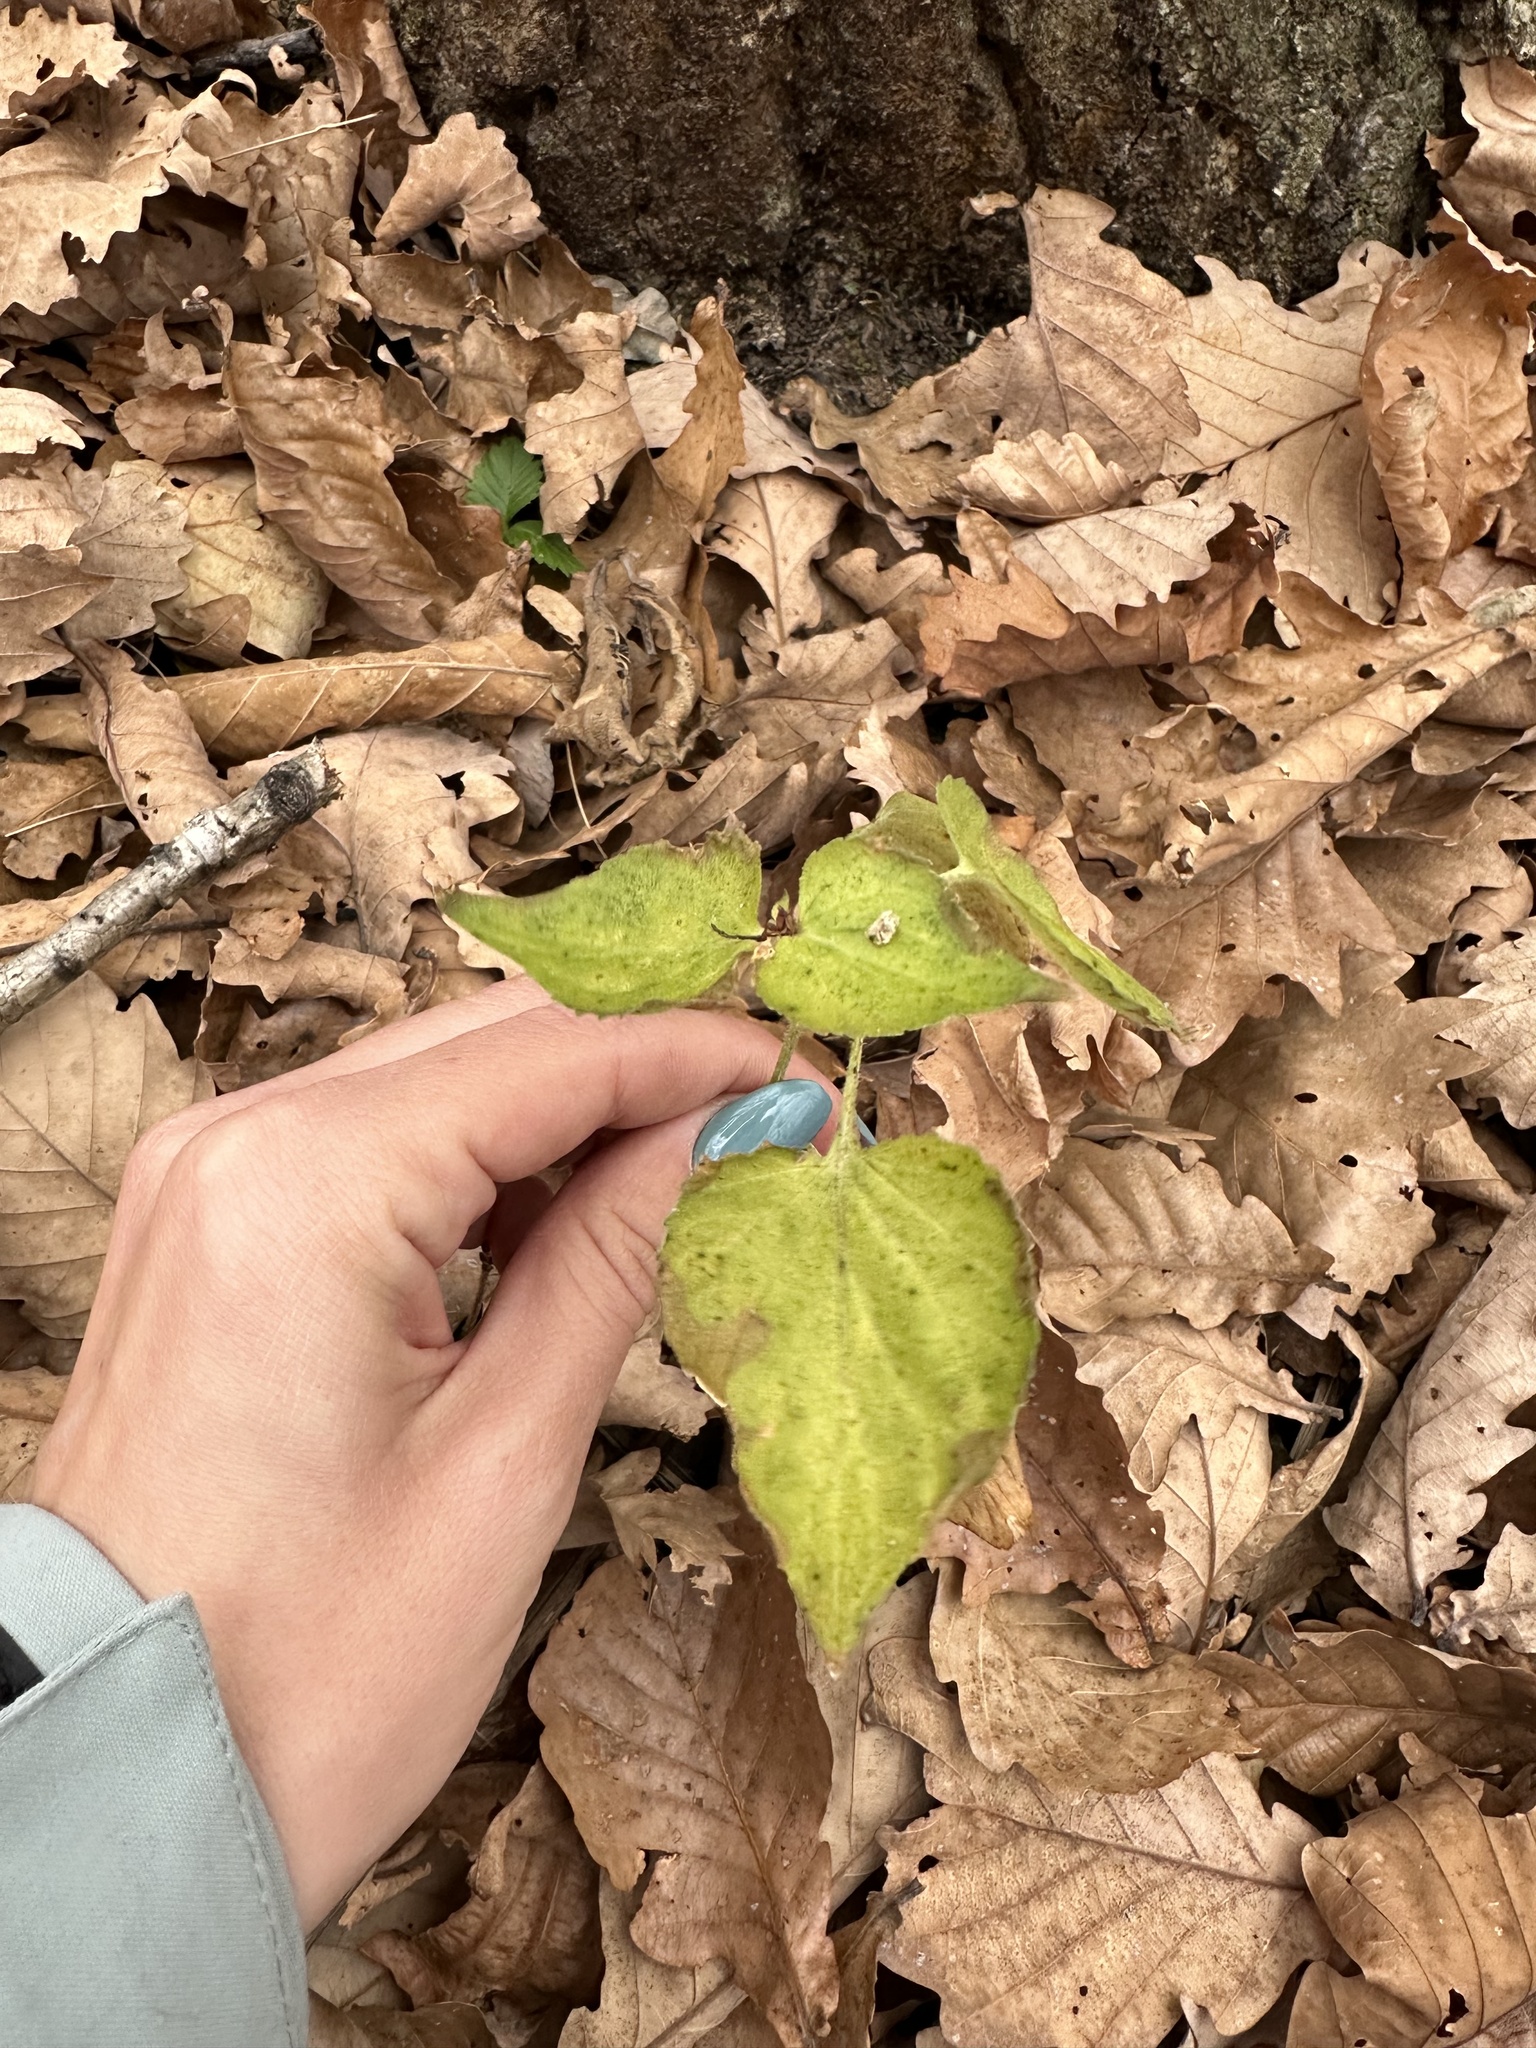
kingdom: Plantae
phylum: Tracheophyta
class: Magnoliopsida
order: Malpighiales
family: Violaceae
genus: Viola
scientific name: Viola acuminata
